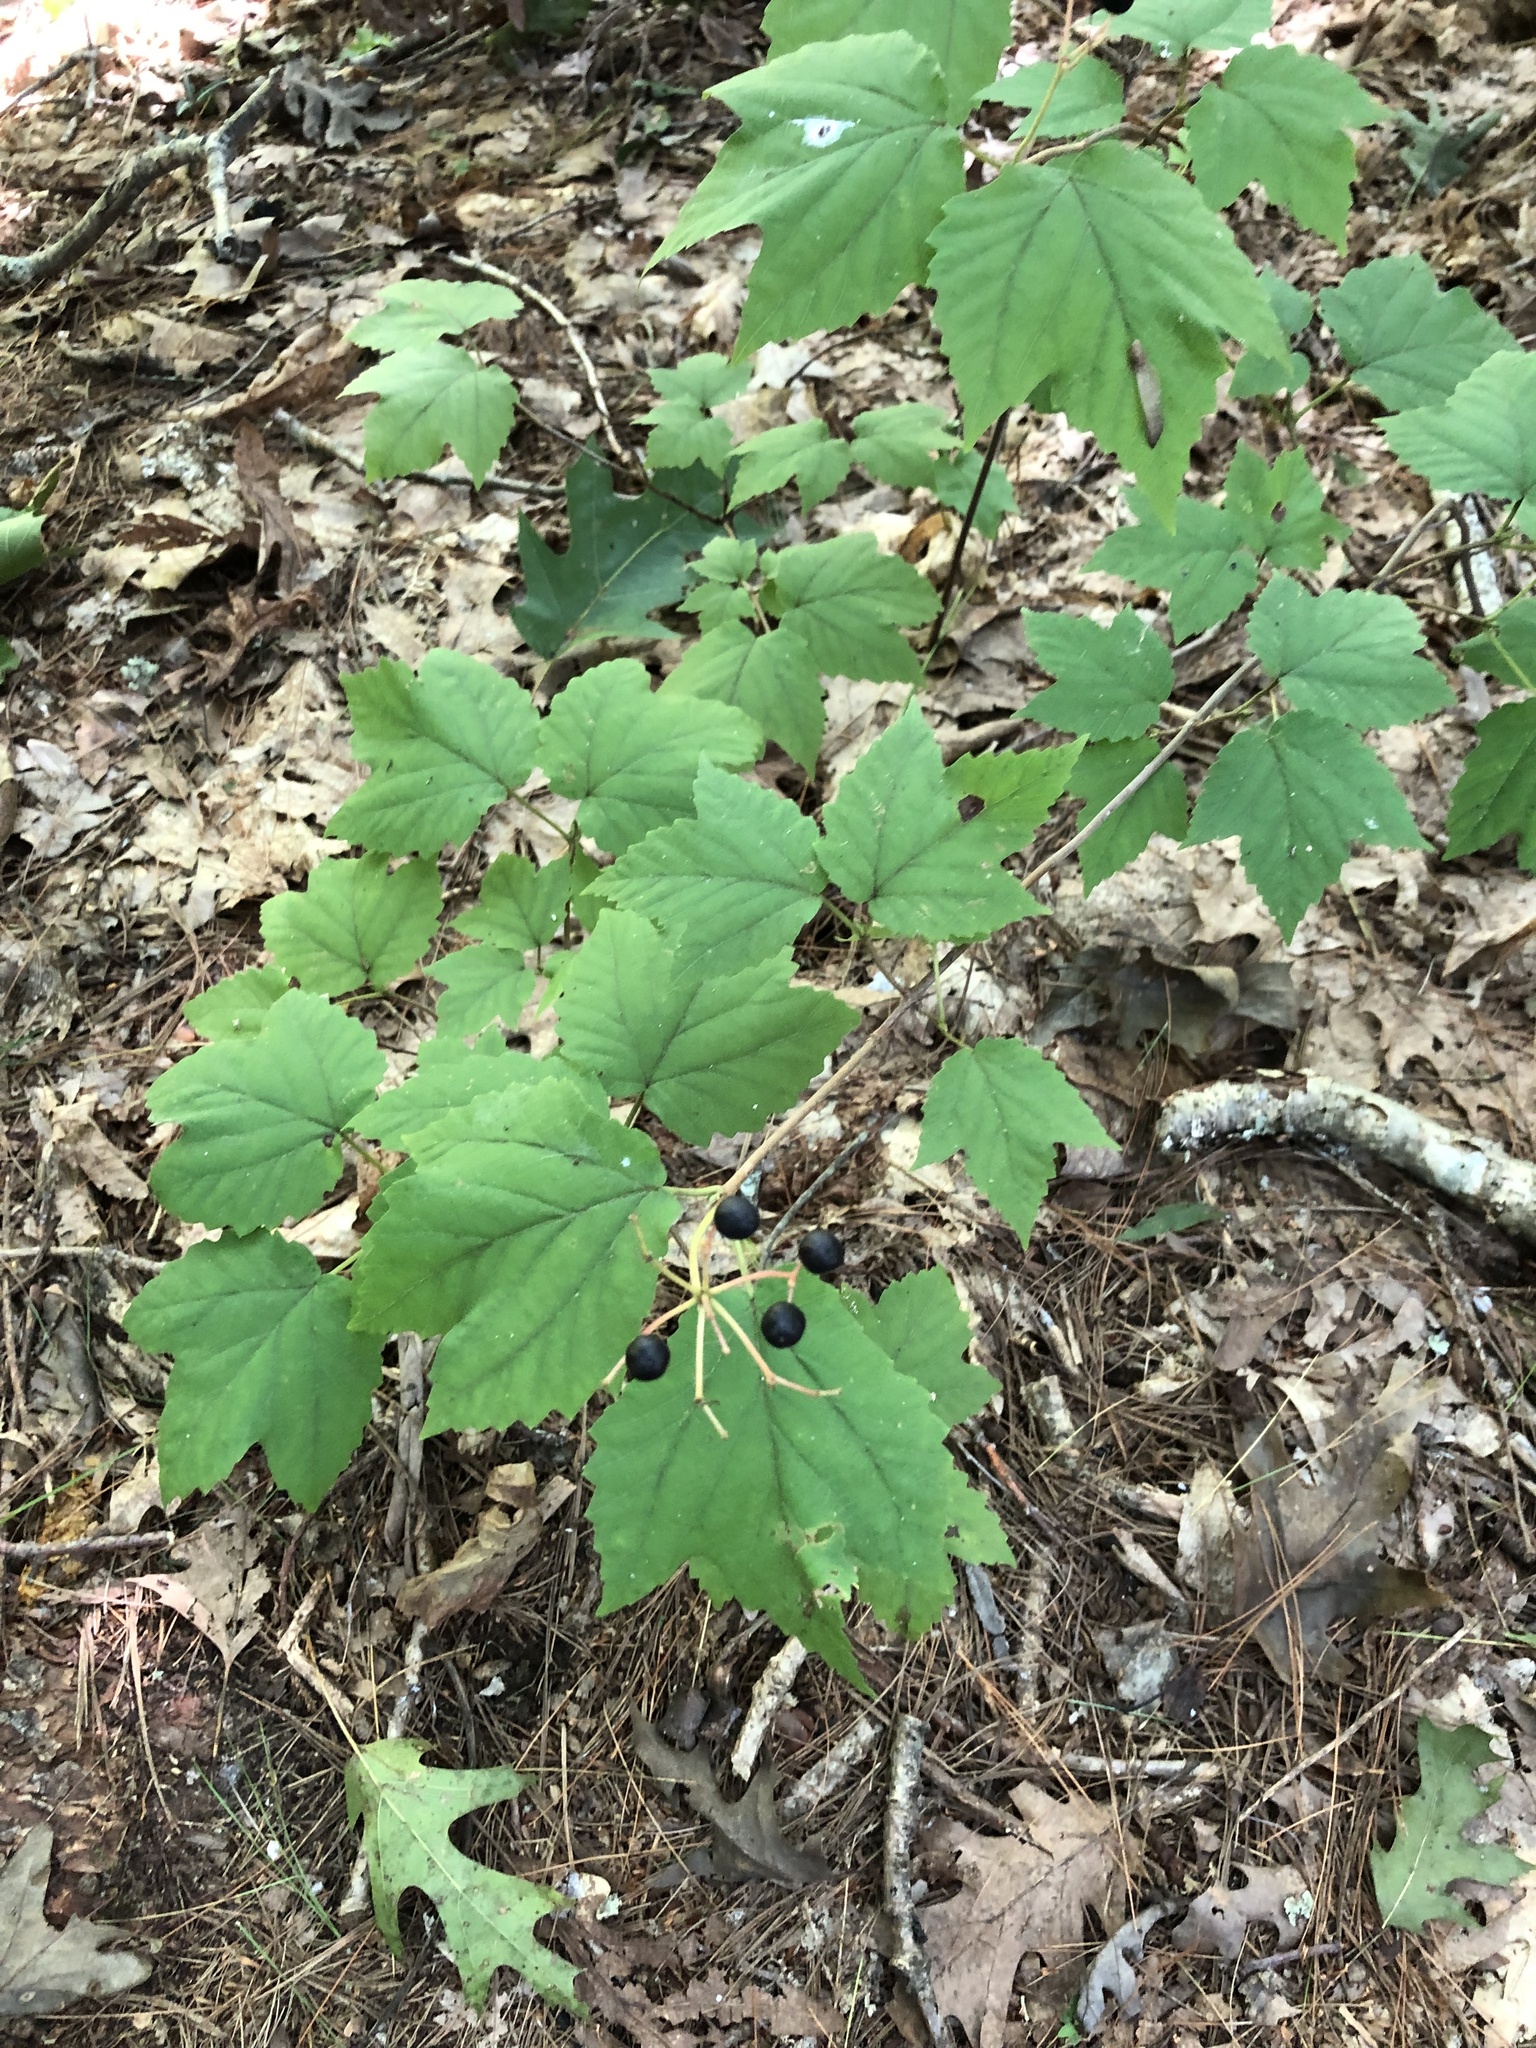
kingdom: Plantae
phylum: Tracheophyta
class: Magnoliopsida
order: Dipsacales
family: Viburnaceae
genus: Viburnum
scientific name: Viburnum acerifolium
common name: Dockmackie
